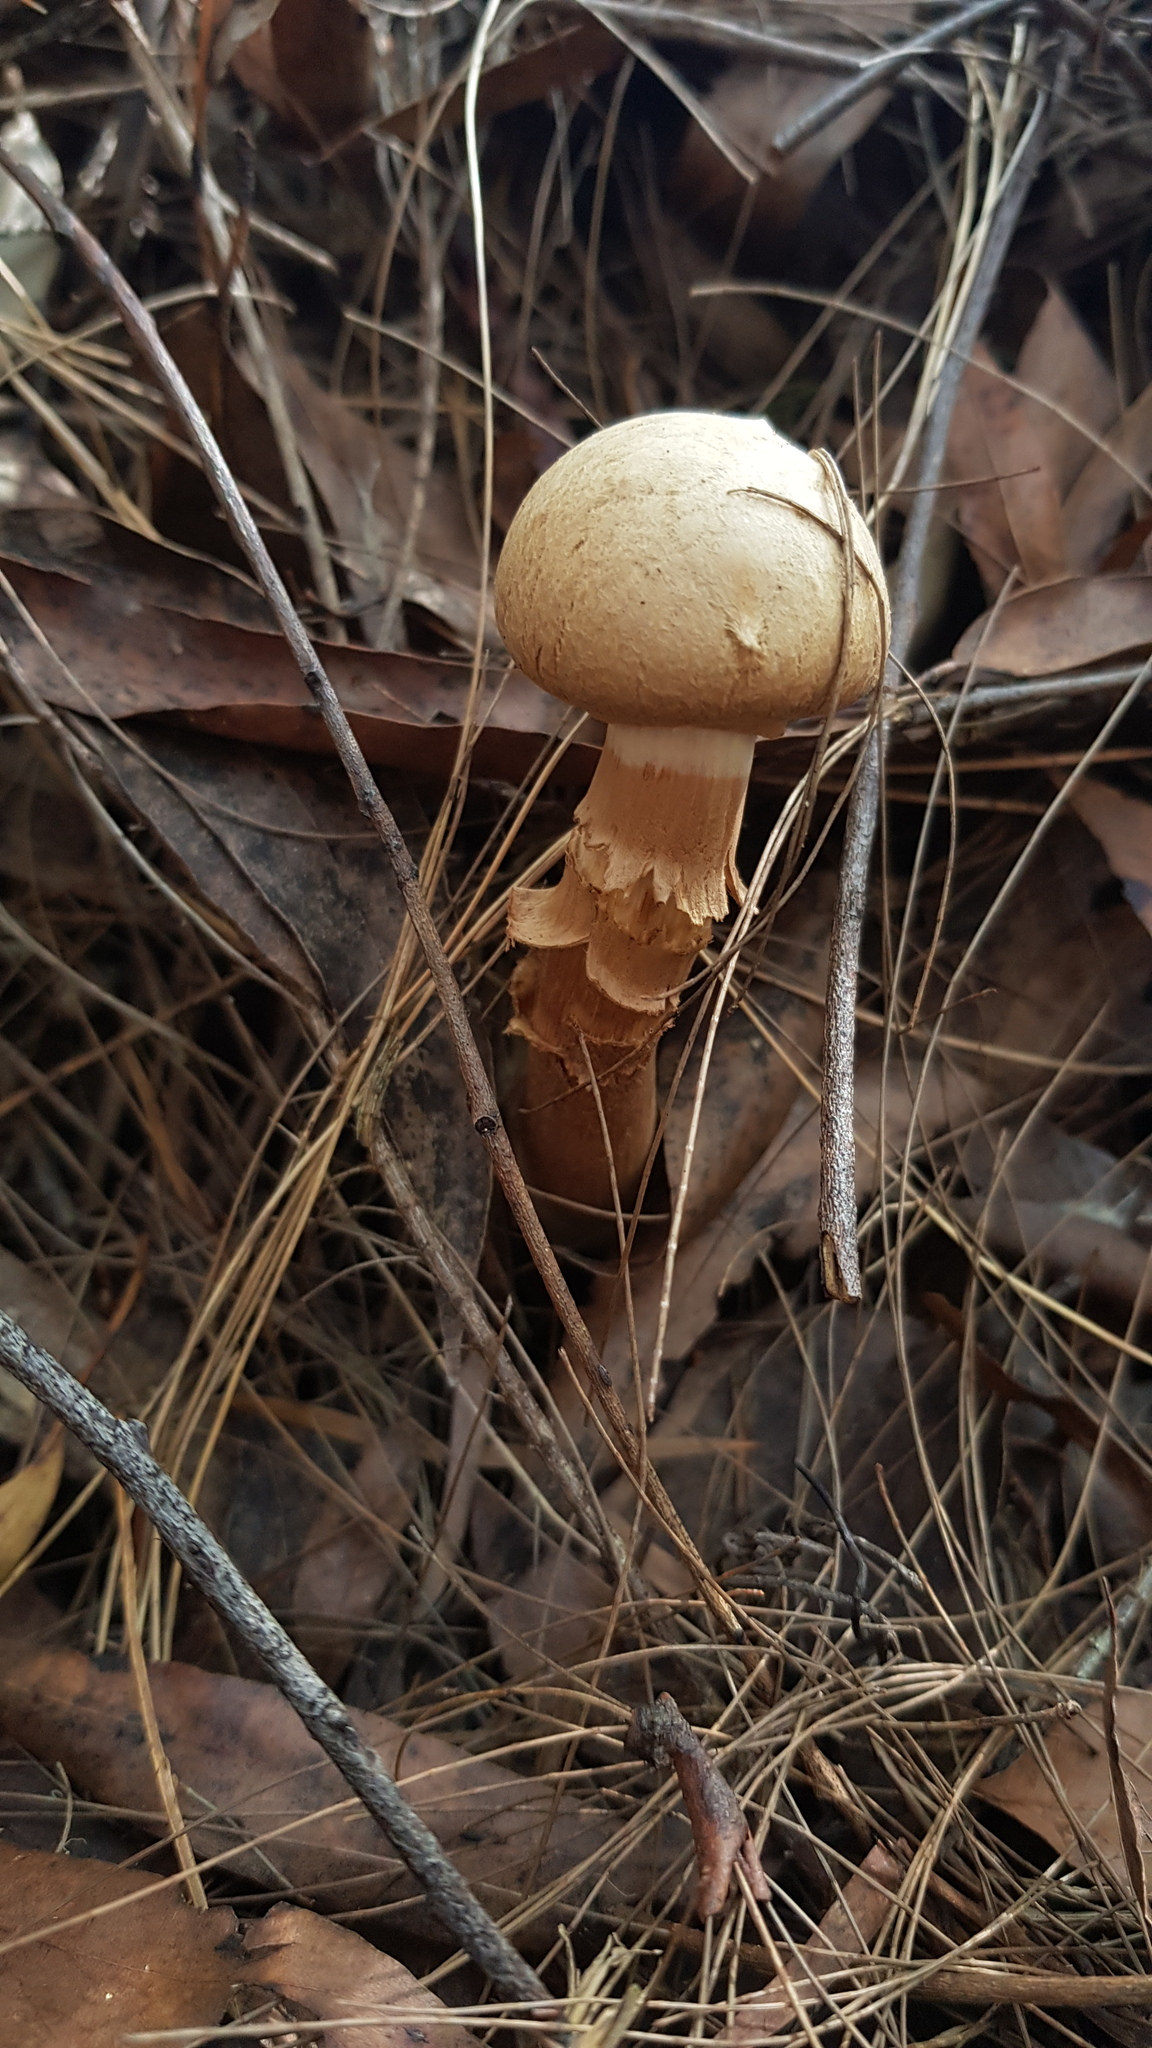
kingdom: Fungi
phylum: Basidiomycota
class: Agaricomycetes
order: Boletales
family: Boletaceae
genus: Boletellus
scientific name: Boletellus dissiliens
